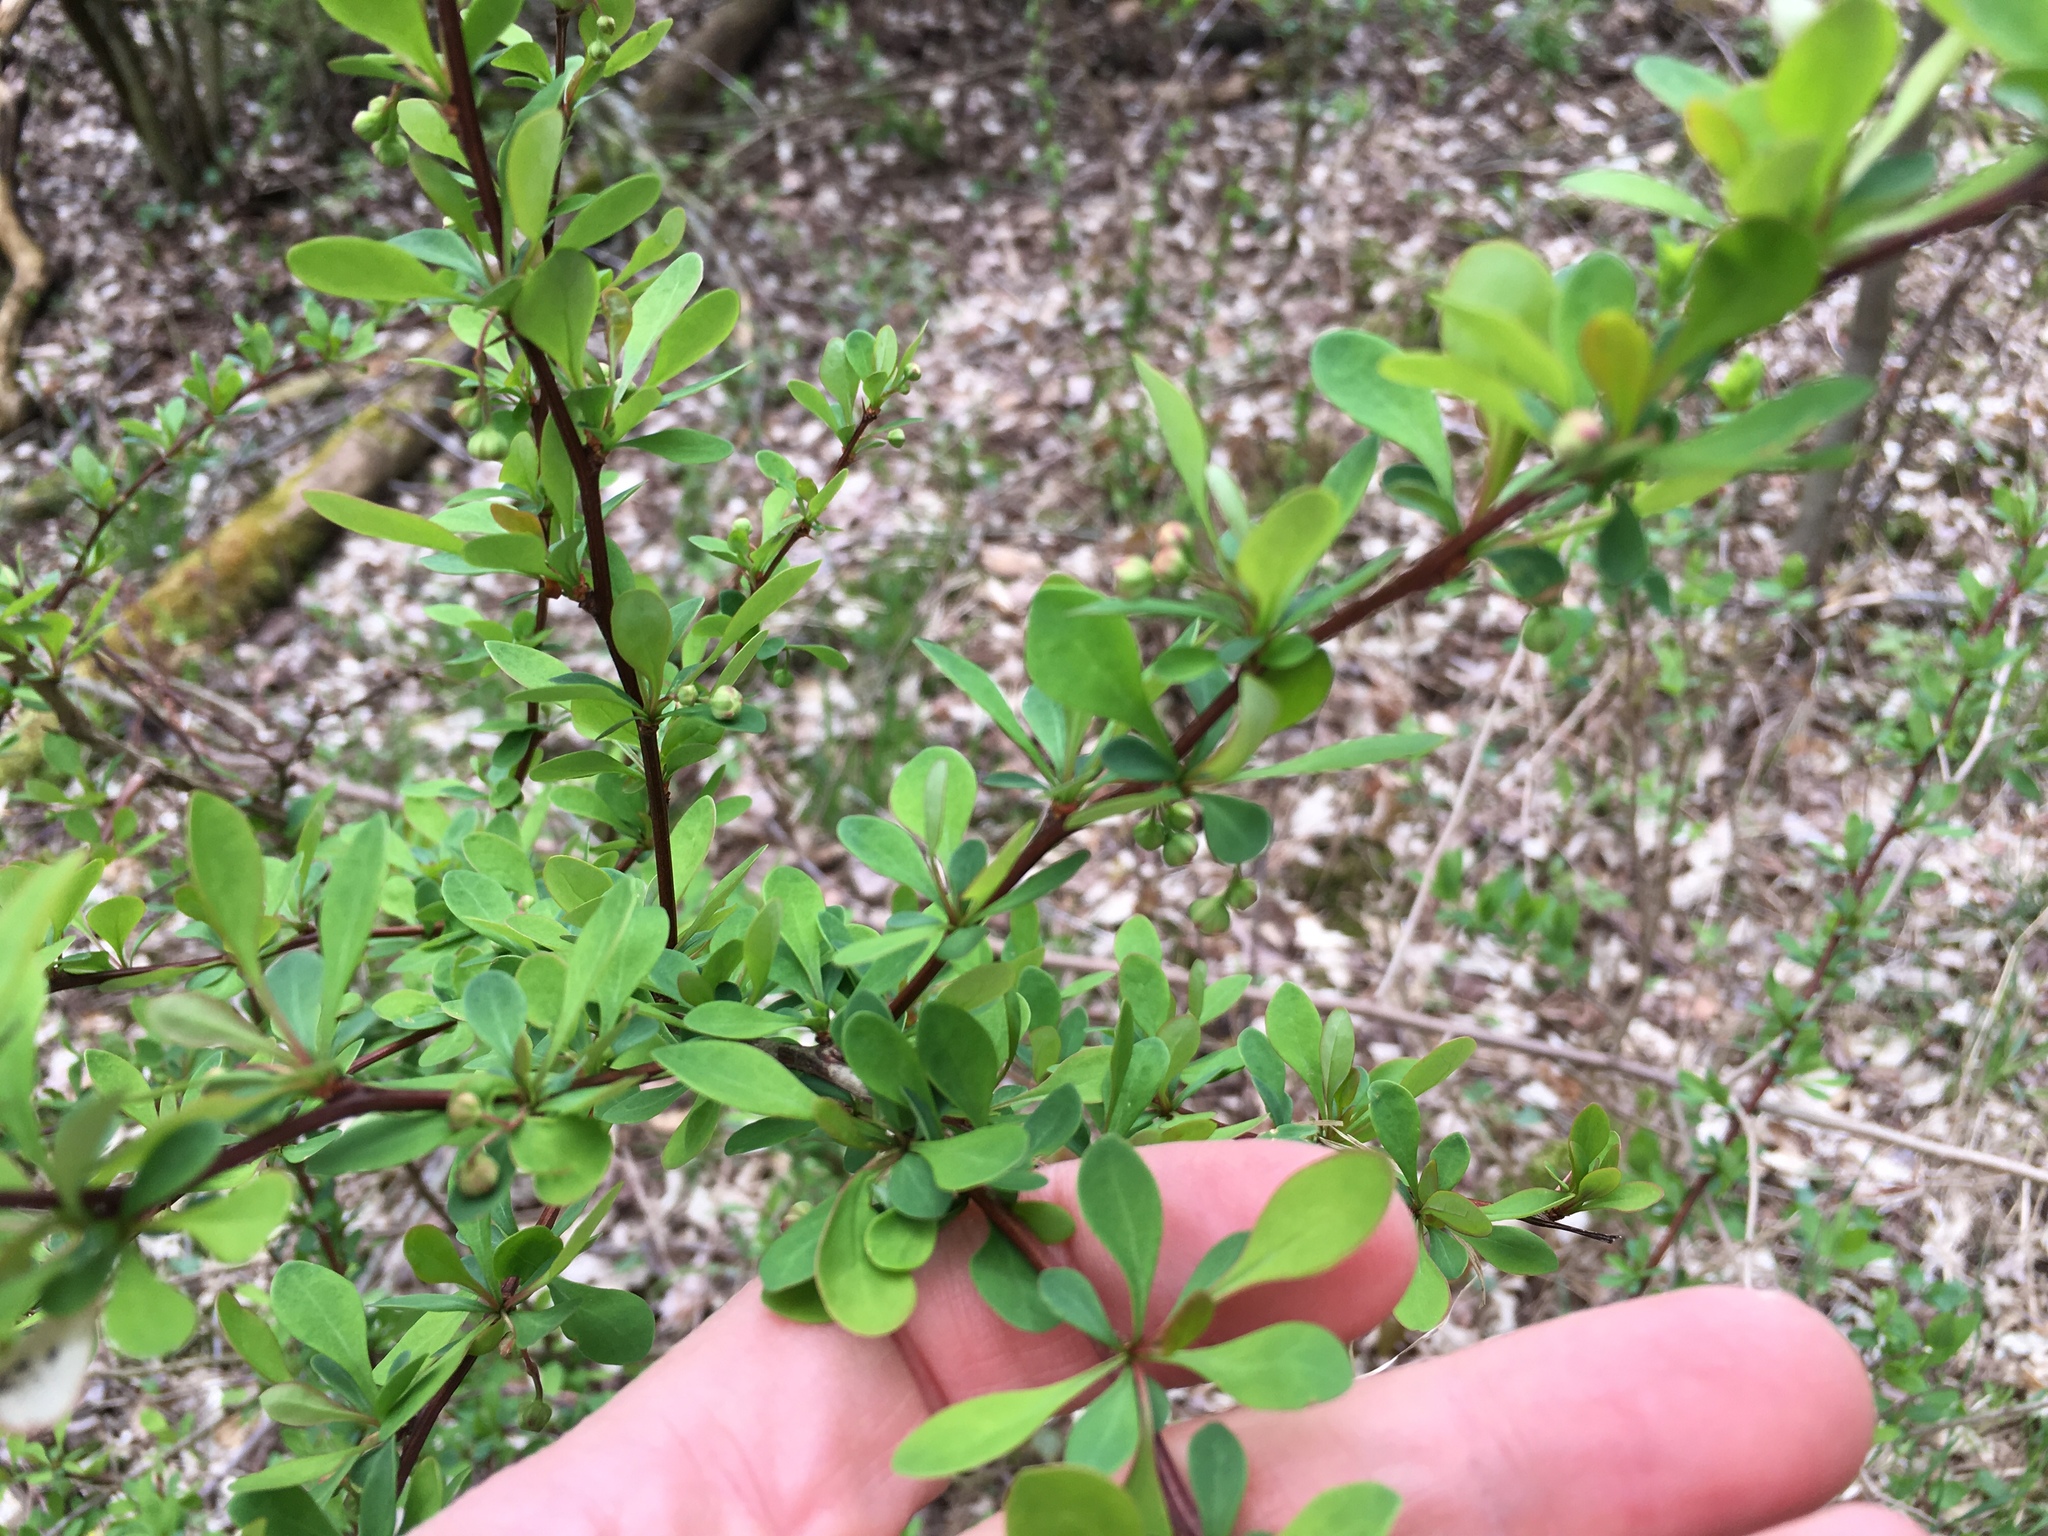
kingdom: Plantae
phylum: Tracheophyta
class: Magnoliopsida
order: Ranunculales
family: Berberidaceae
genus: Berberis
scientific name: Berberis thunbergii
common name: Japanese barberry
